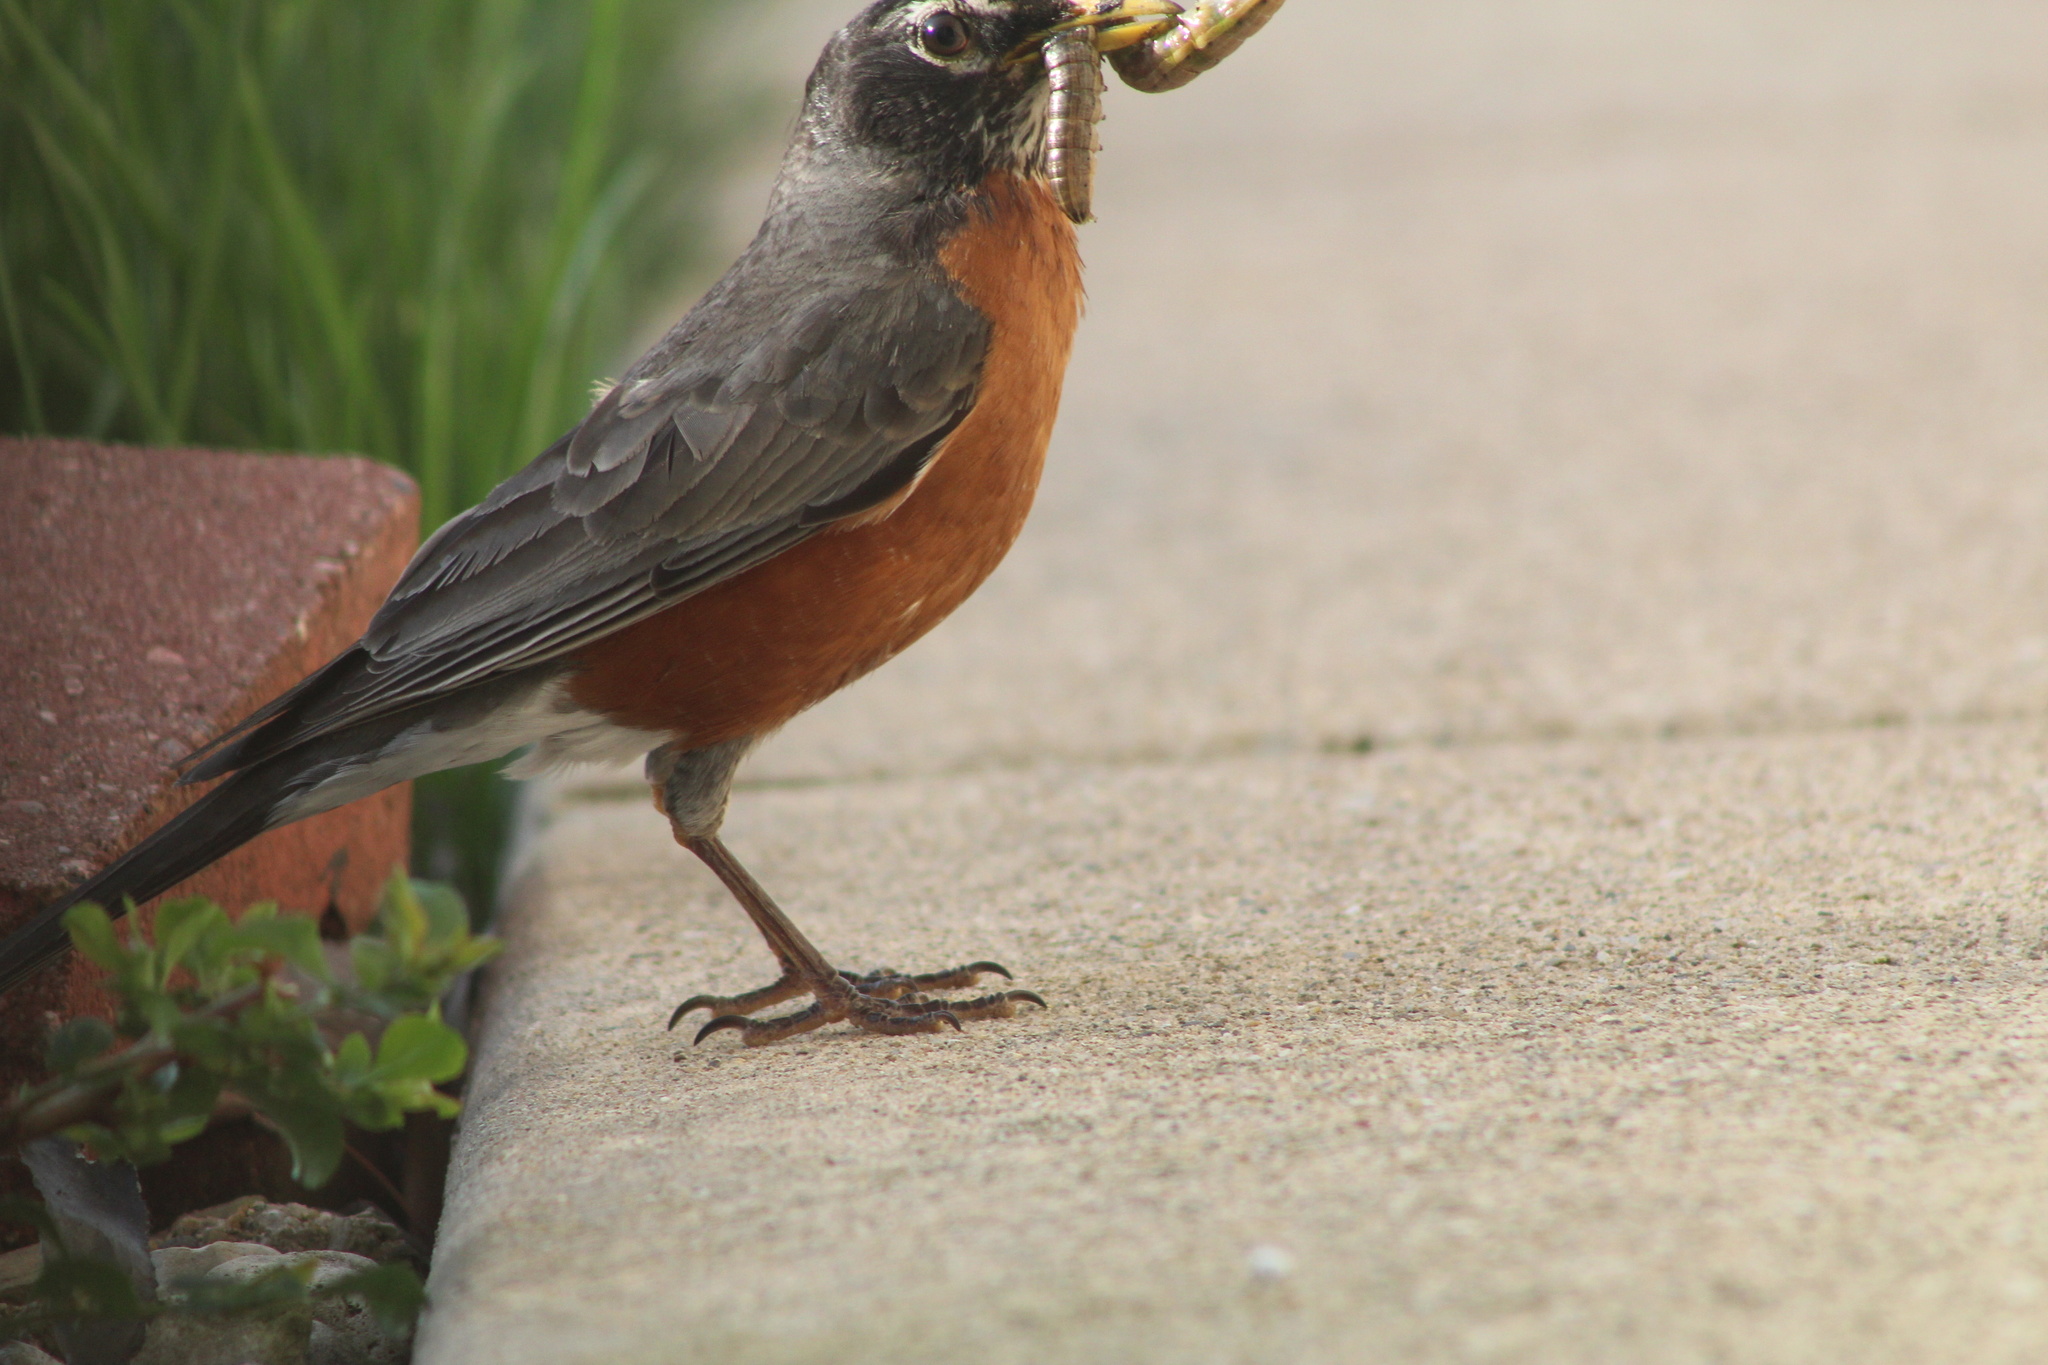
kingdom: Animalia
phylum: Chordata
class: Aves
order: Passeriformes
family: Turdidae
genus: Turdus
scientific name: Turdus migratorius
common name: American robin
